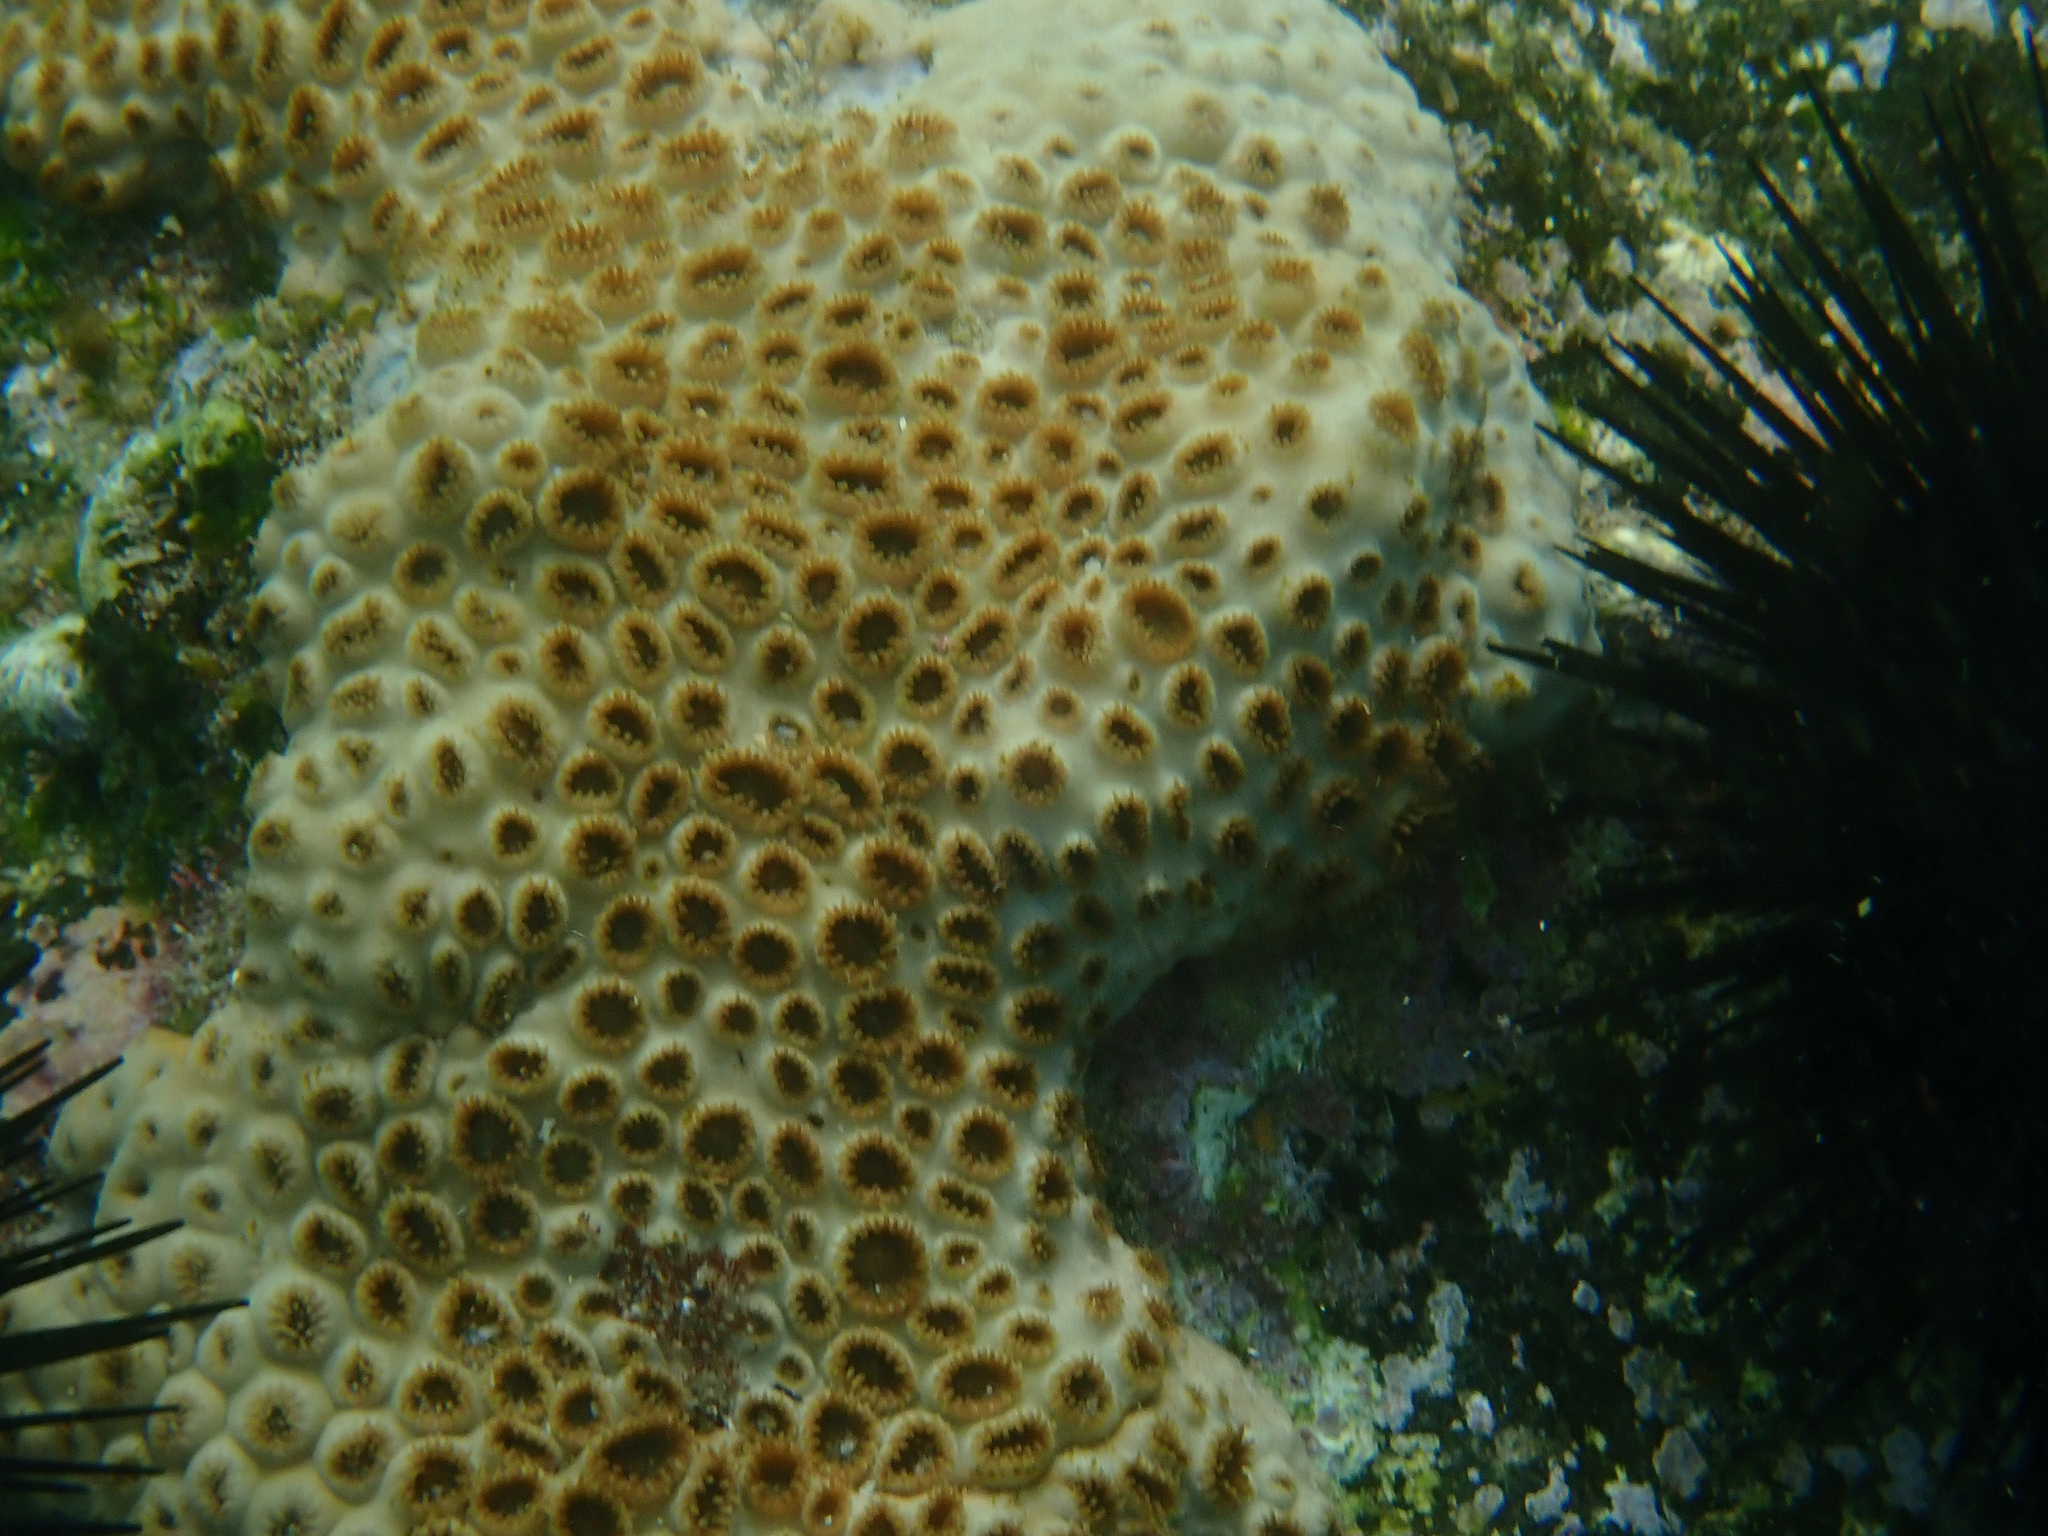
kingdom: Animalia
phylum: Cnidaria
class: Anthozoa
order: Zoantharia
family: Sphenopidae
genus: Palythoa
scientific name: Palythoa caribaeorum
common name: Encrusting colonial anemone
